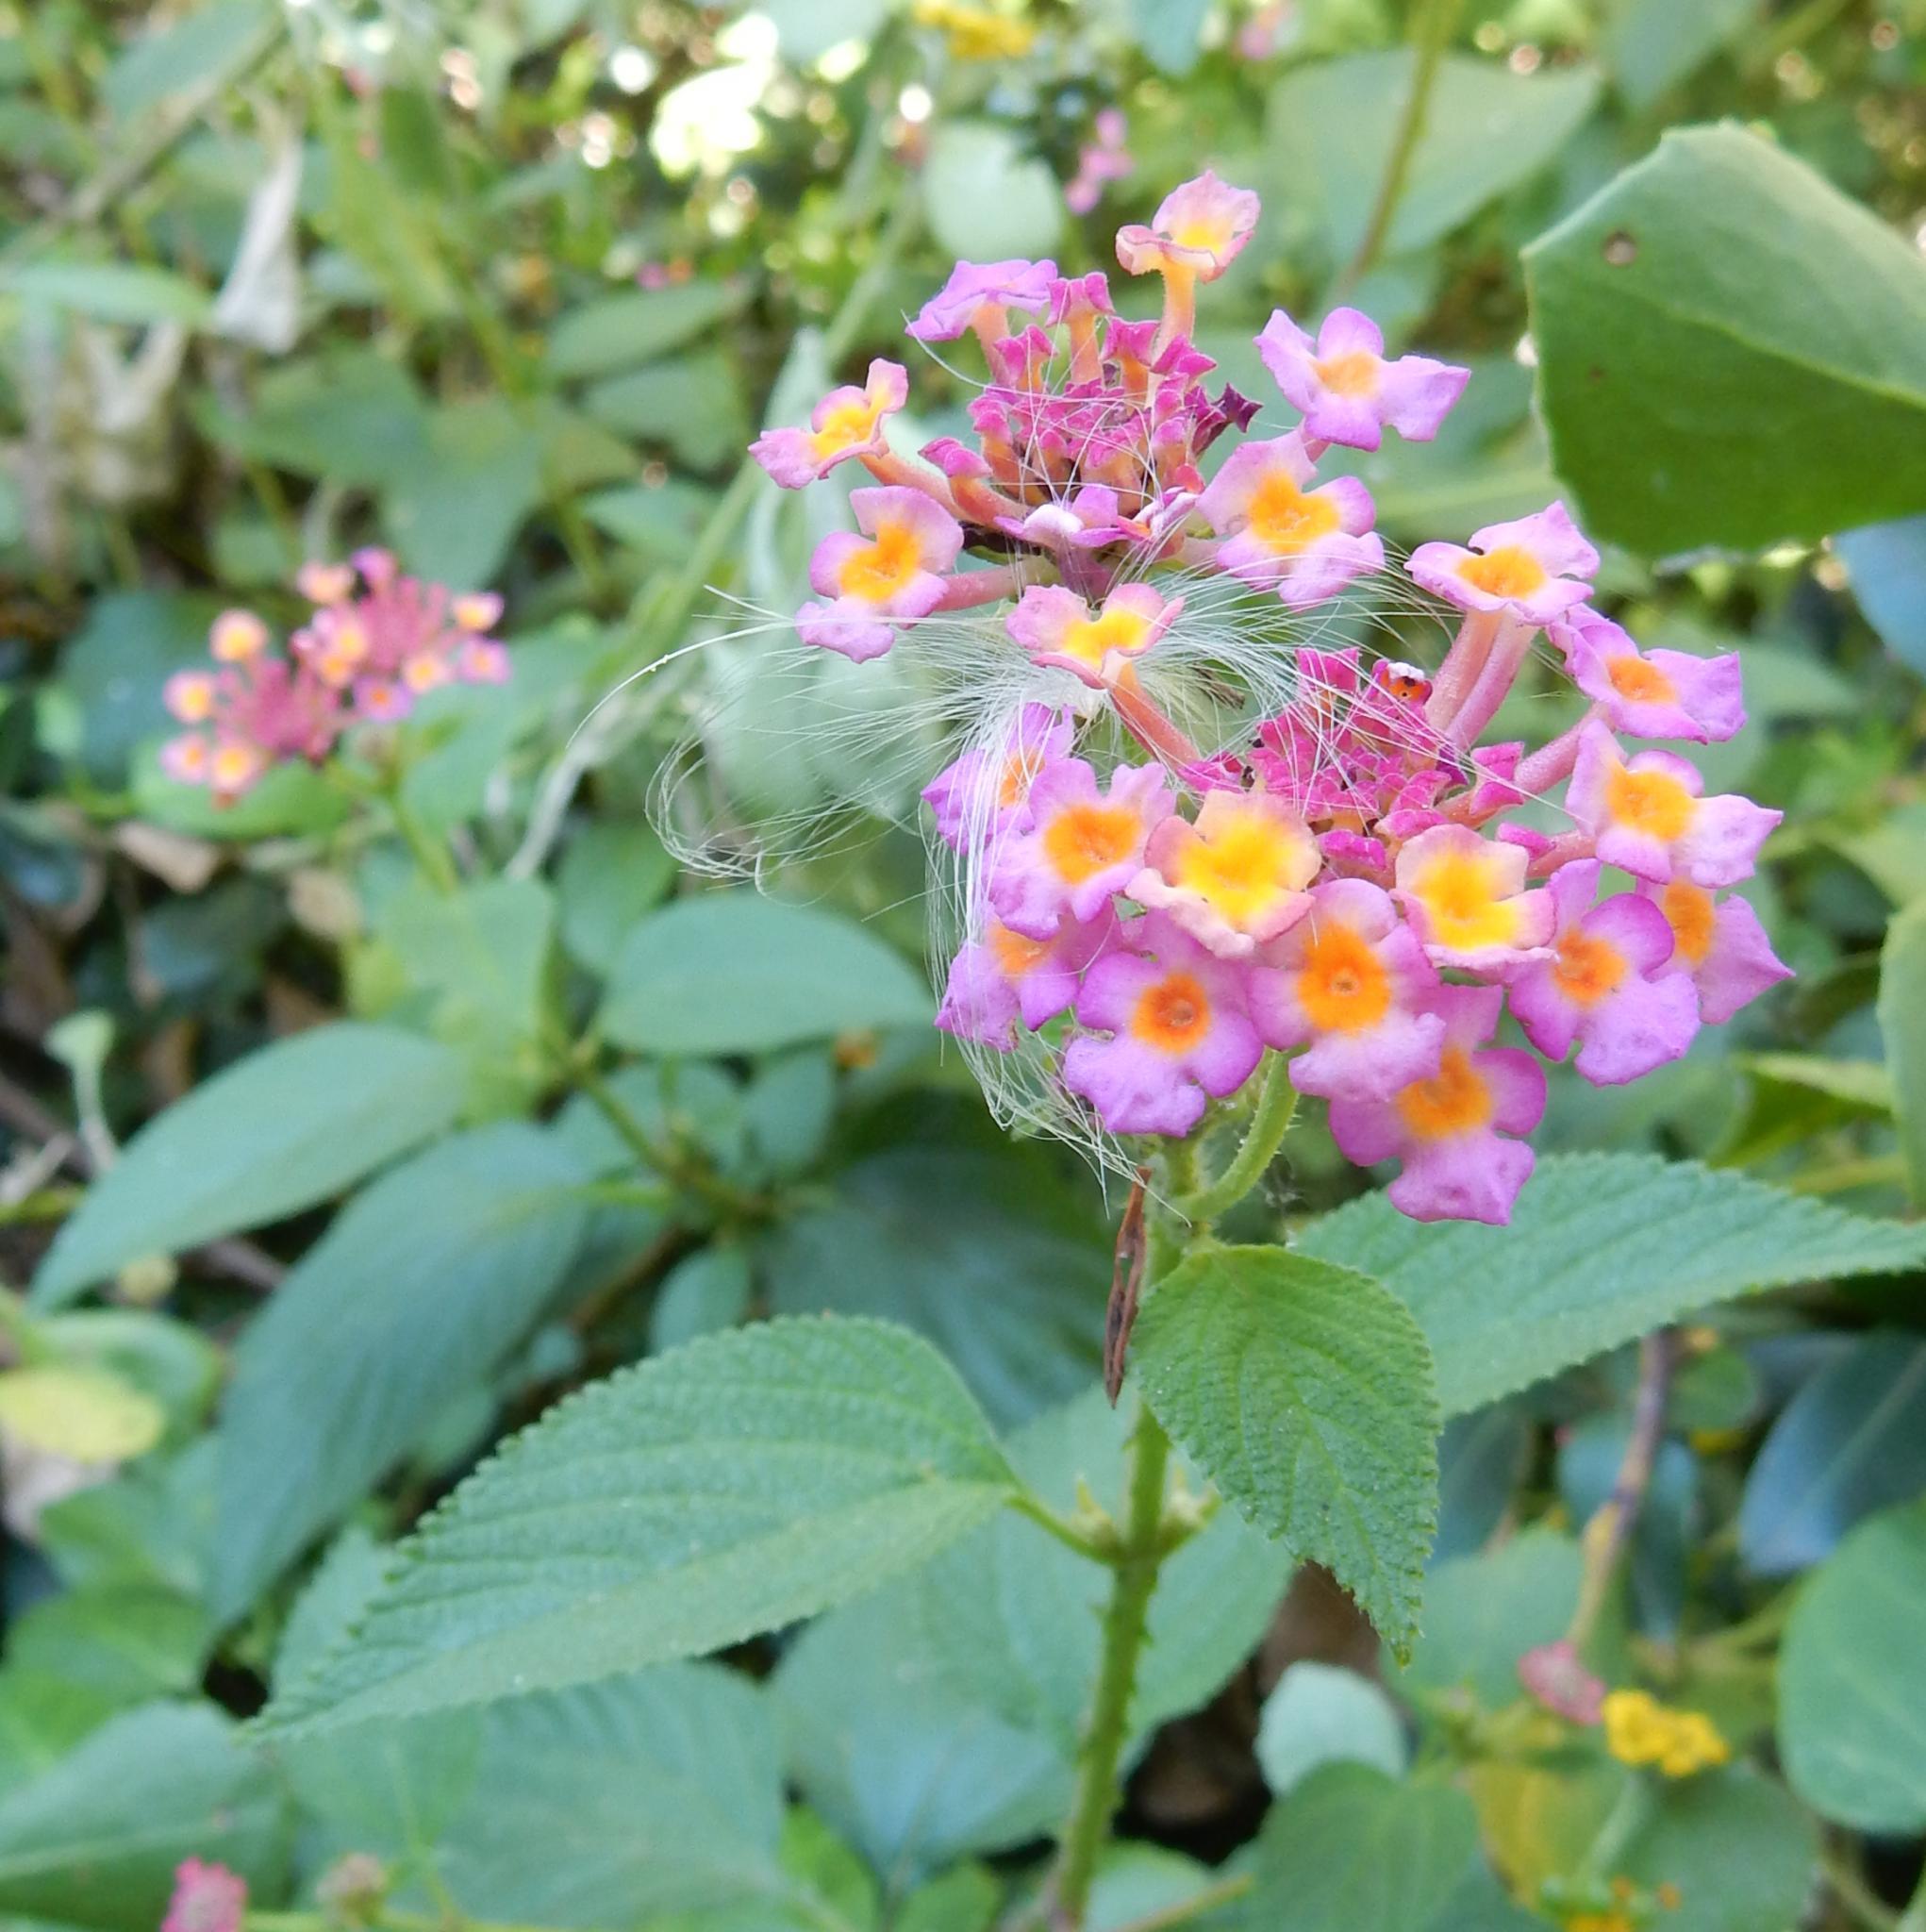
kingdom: Plantae
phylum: Tracheophyta
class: Magnoliopsida
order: Lamiales
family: Verbenaceae
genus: Lantana
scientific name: Lantana camara
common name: Lantana
